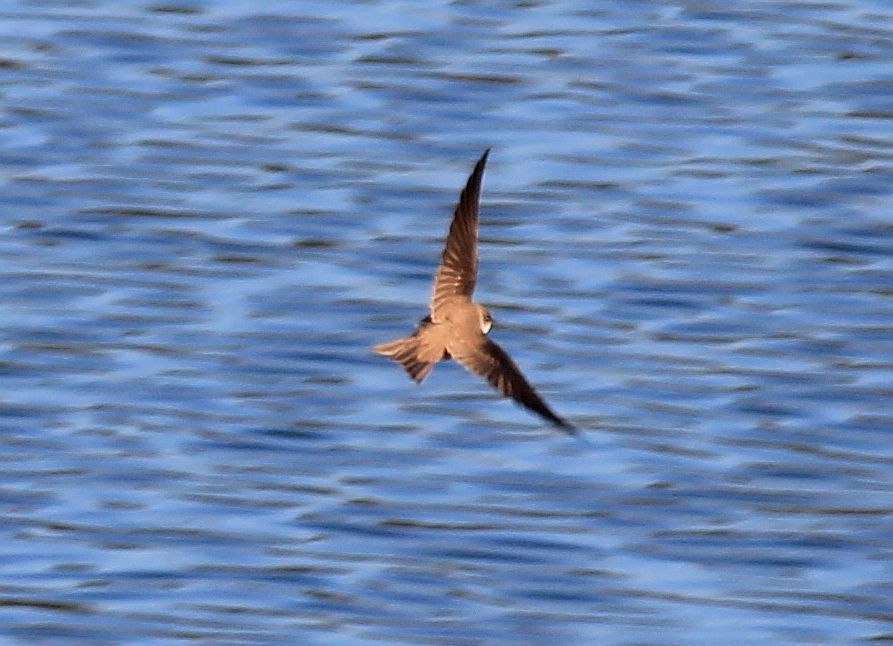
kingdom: Animalia
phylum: Chordata
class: Aves
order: Passeriformes
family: Hirundinidae
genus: Riparia
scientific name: Riparia riparia
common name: Sand martin
